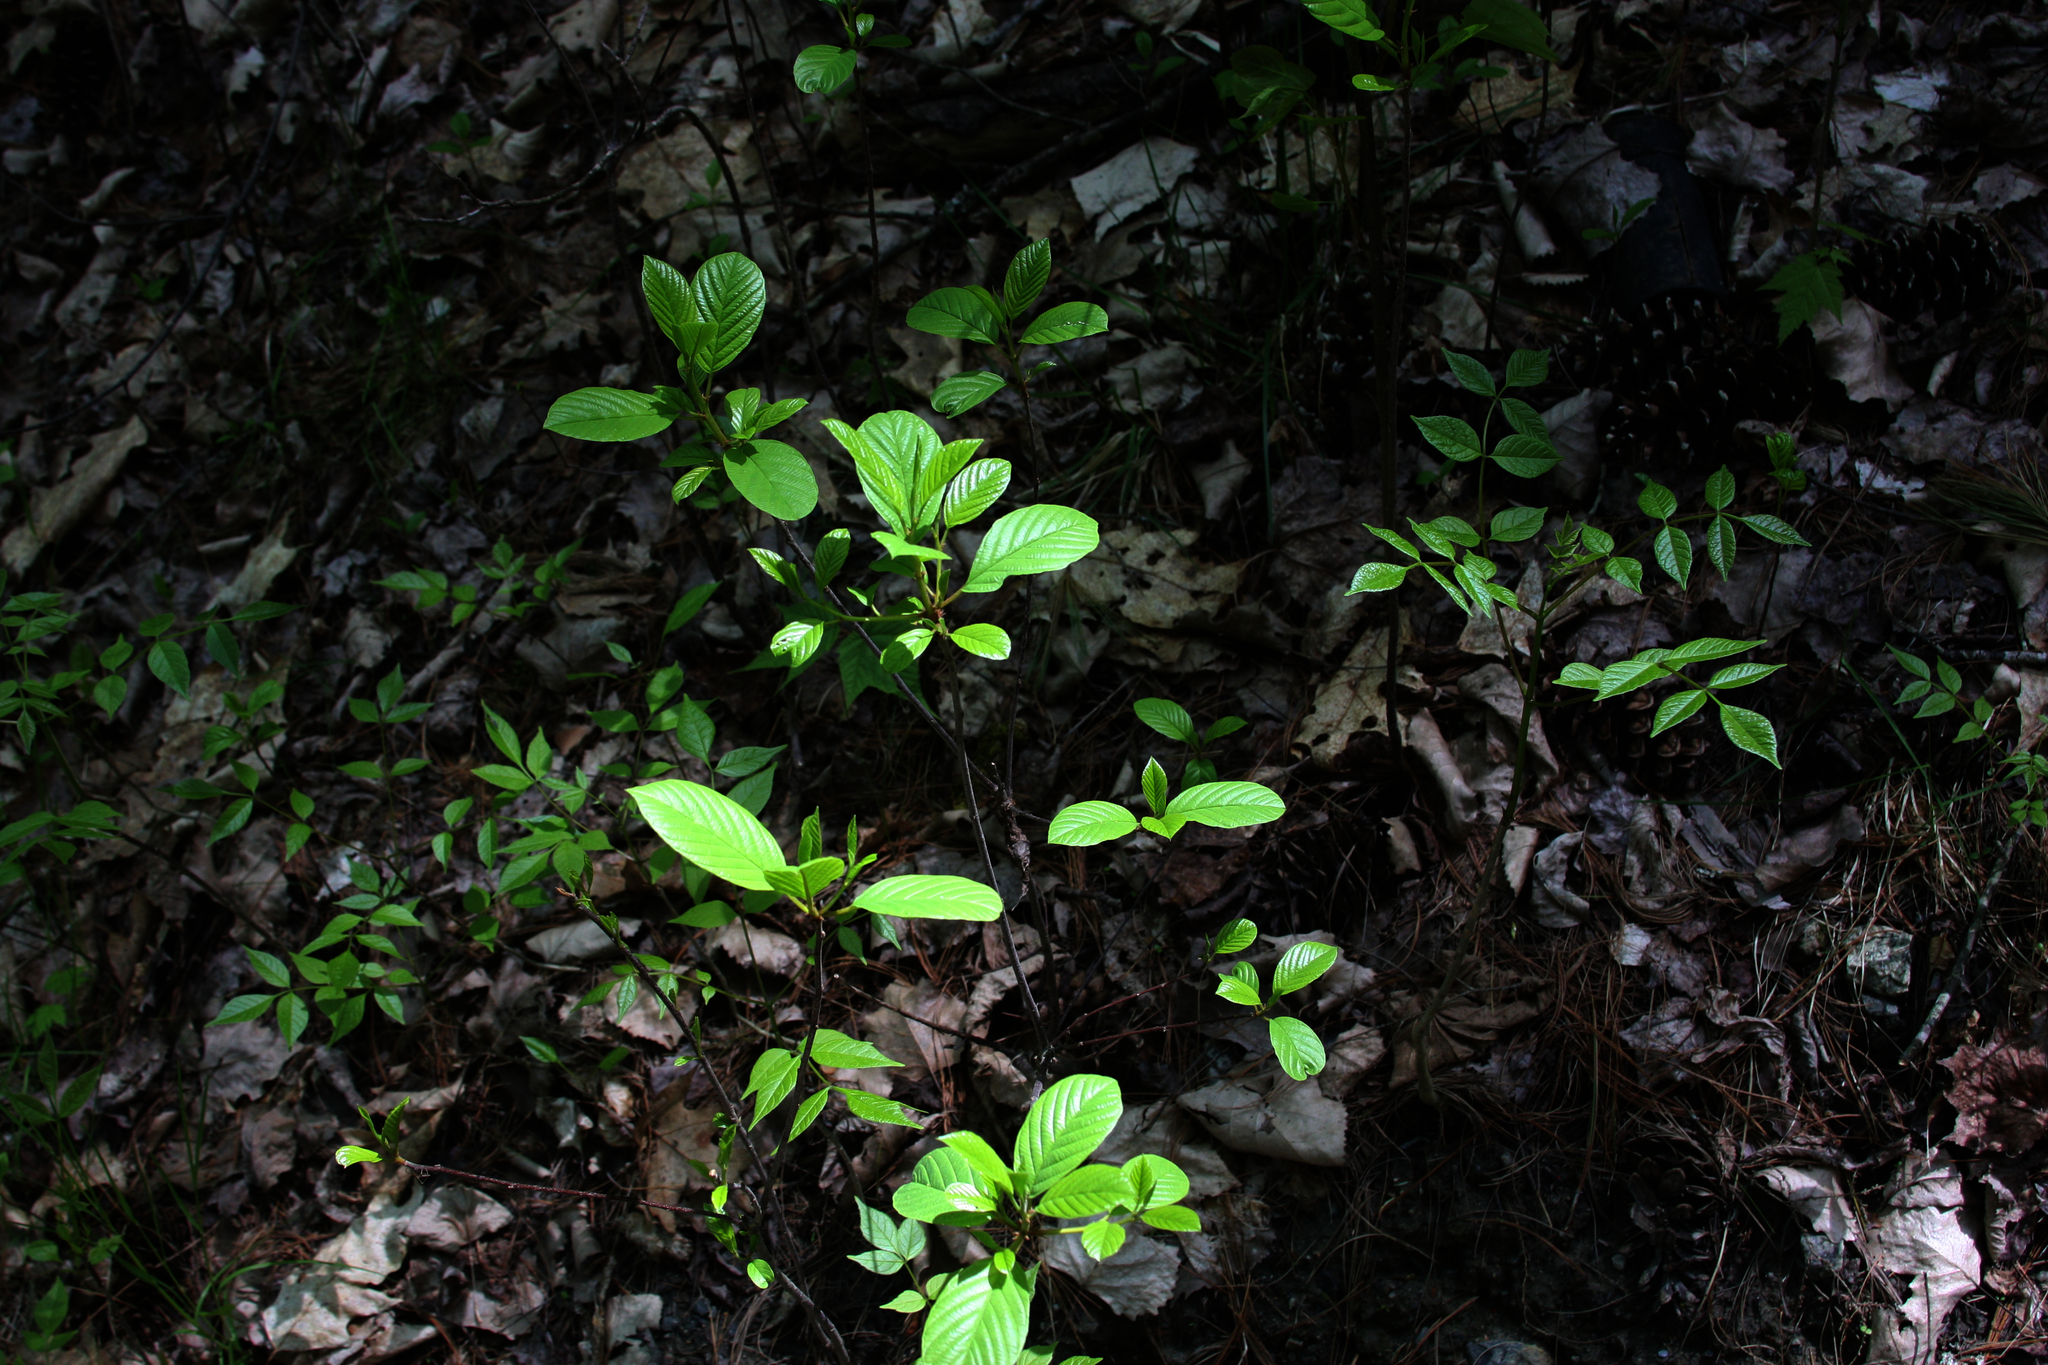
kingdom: Plantae
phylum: Tracheophyta
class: Magnoliopsida
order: Rosales
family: Rhamnaceae
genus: Frangula
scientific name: Frangula alnus
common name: Alder buckthorn
